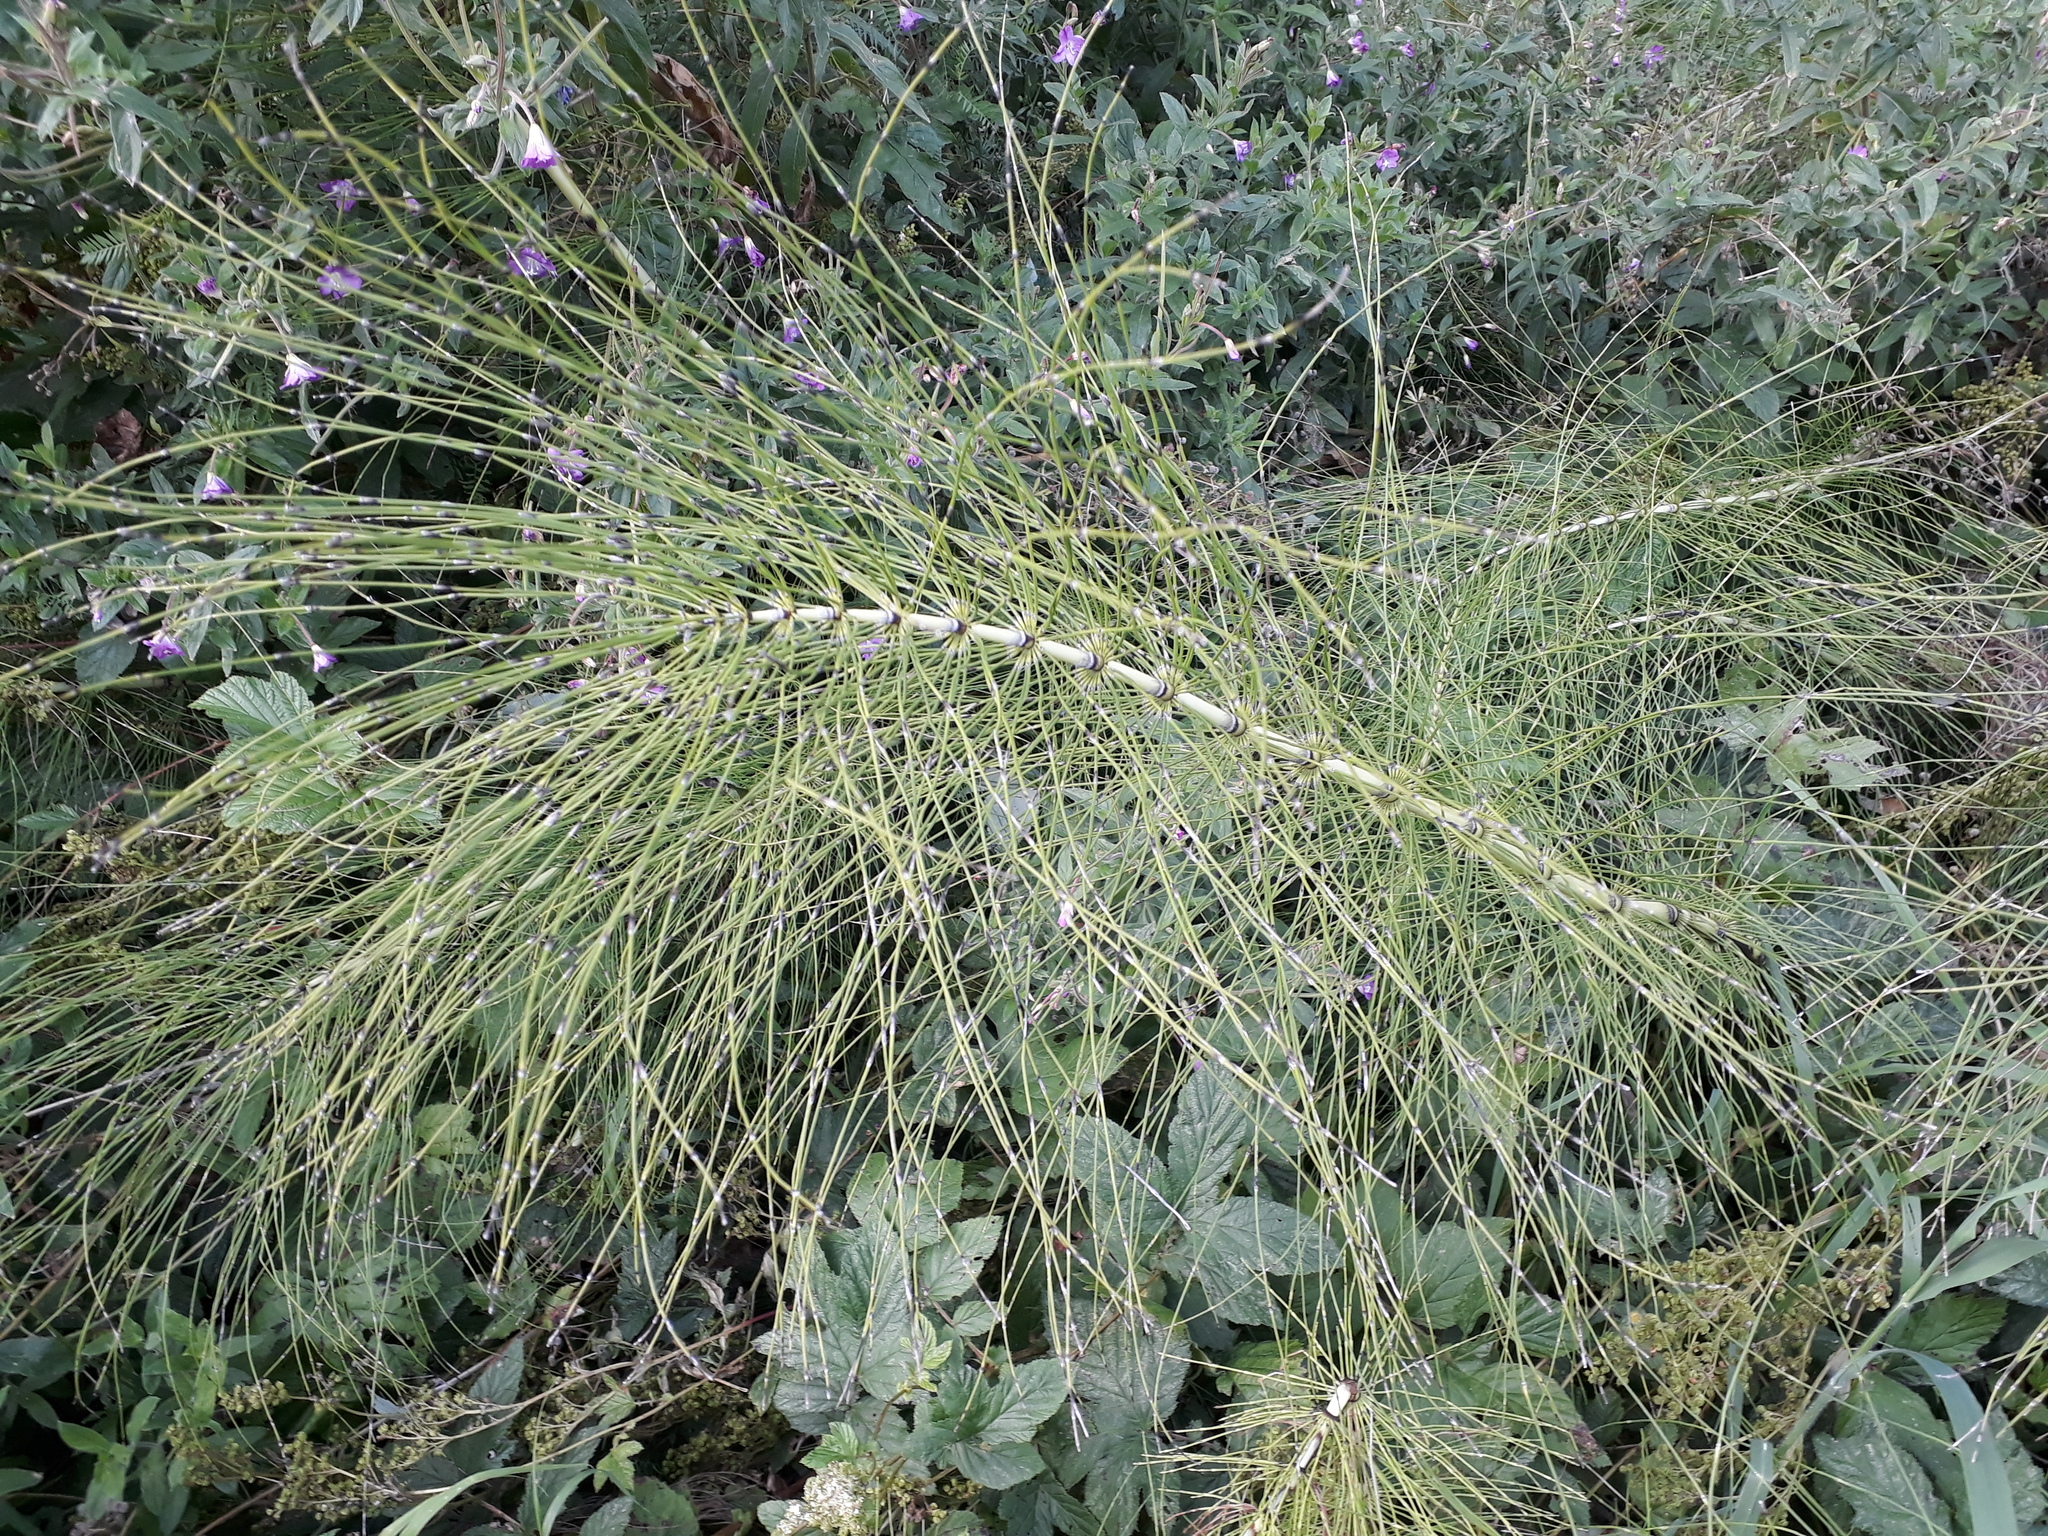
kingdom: Plantae
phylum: Tracheophyta
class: Polypodiopsida
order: Equisetales
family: Equisetaceae
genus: Equisetum
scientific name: Equisetum telmateia
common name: Great horsetail
